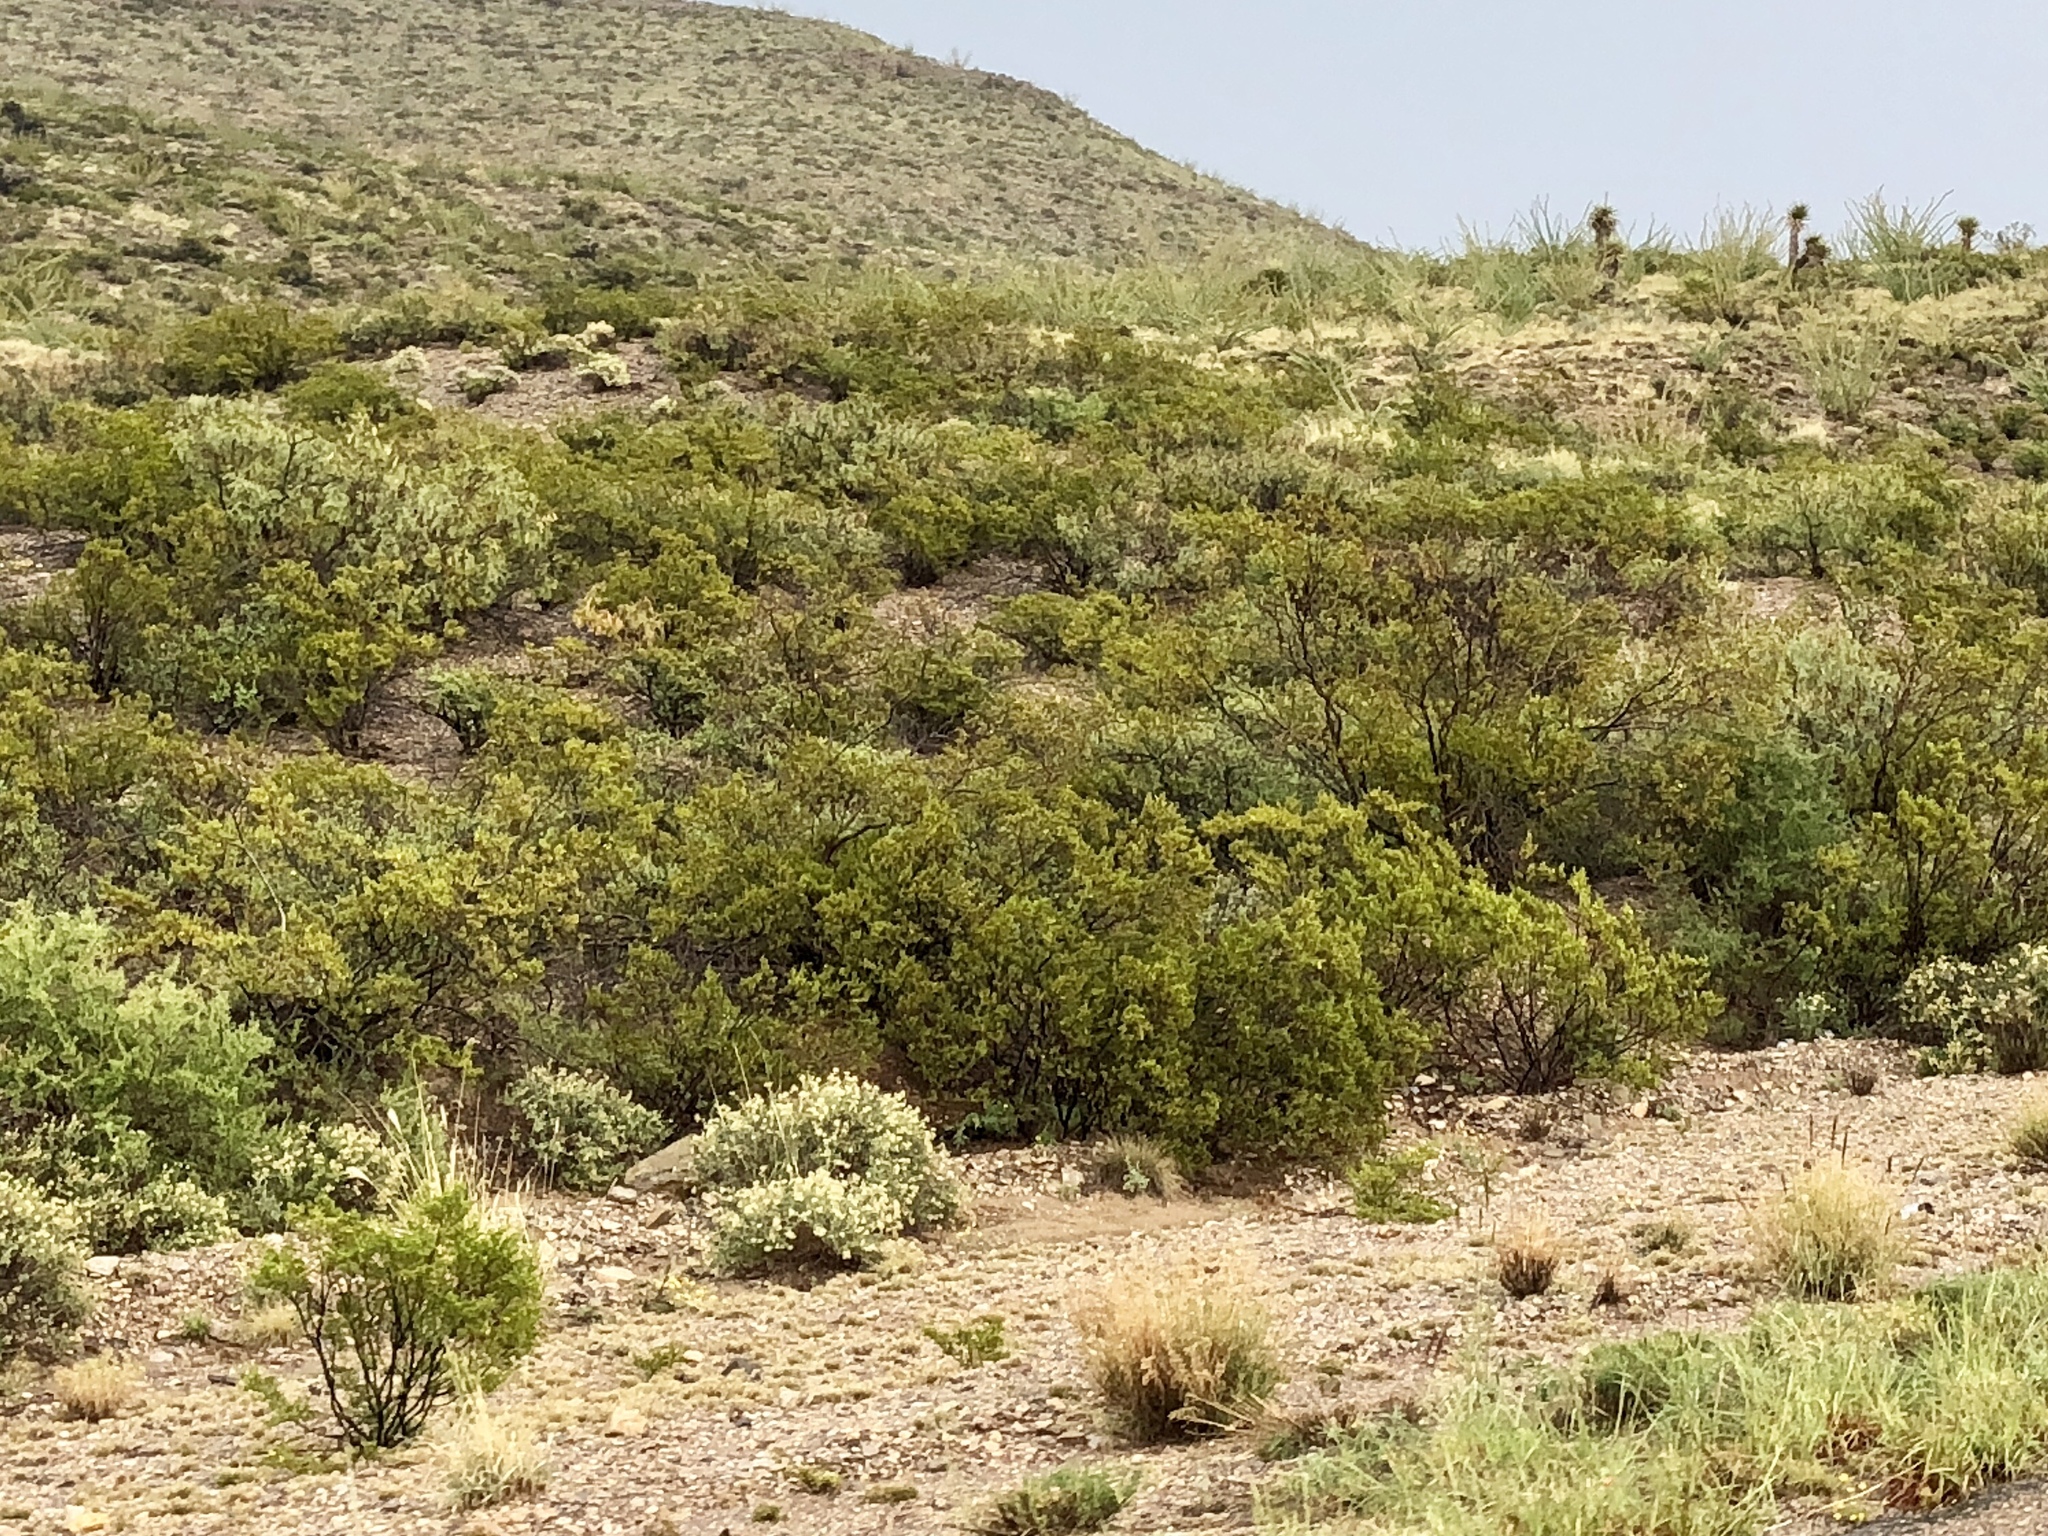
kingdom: Plantae
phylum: Tracheophyta
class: Magnoliopsida
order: Zygophyllales
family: Zygophyllaceae
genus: Larrea
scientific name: Larrea tridentata
